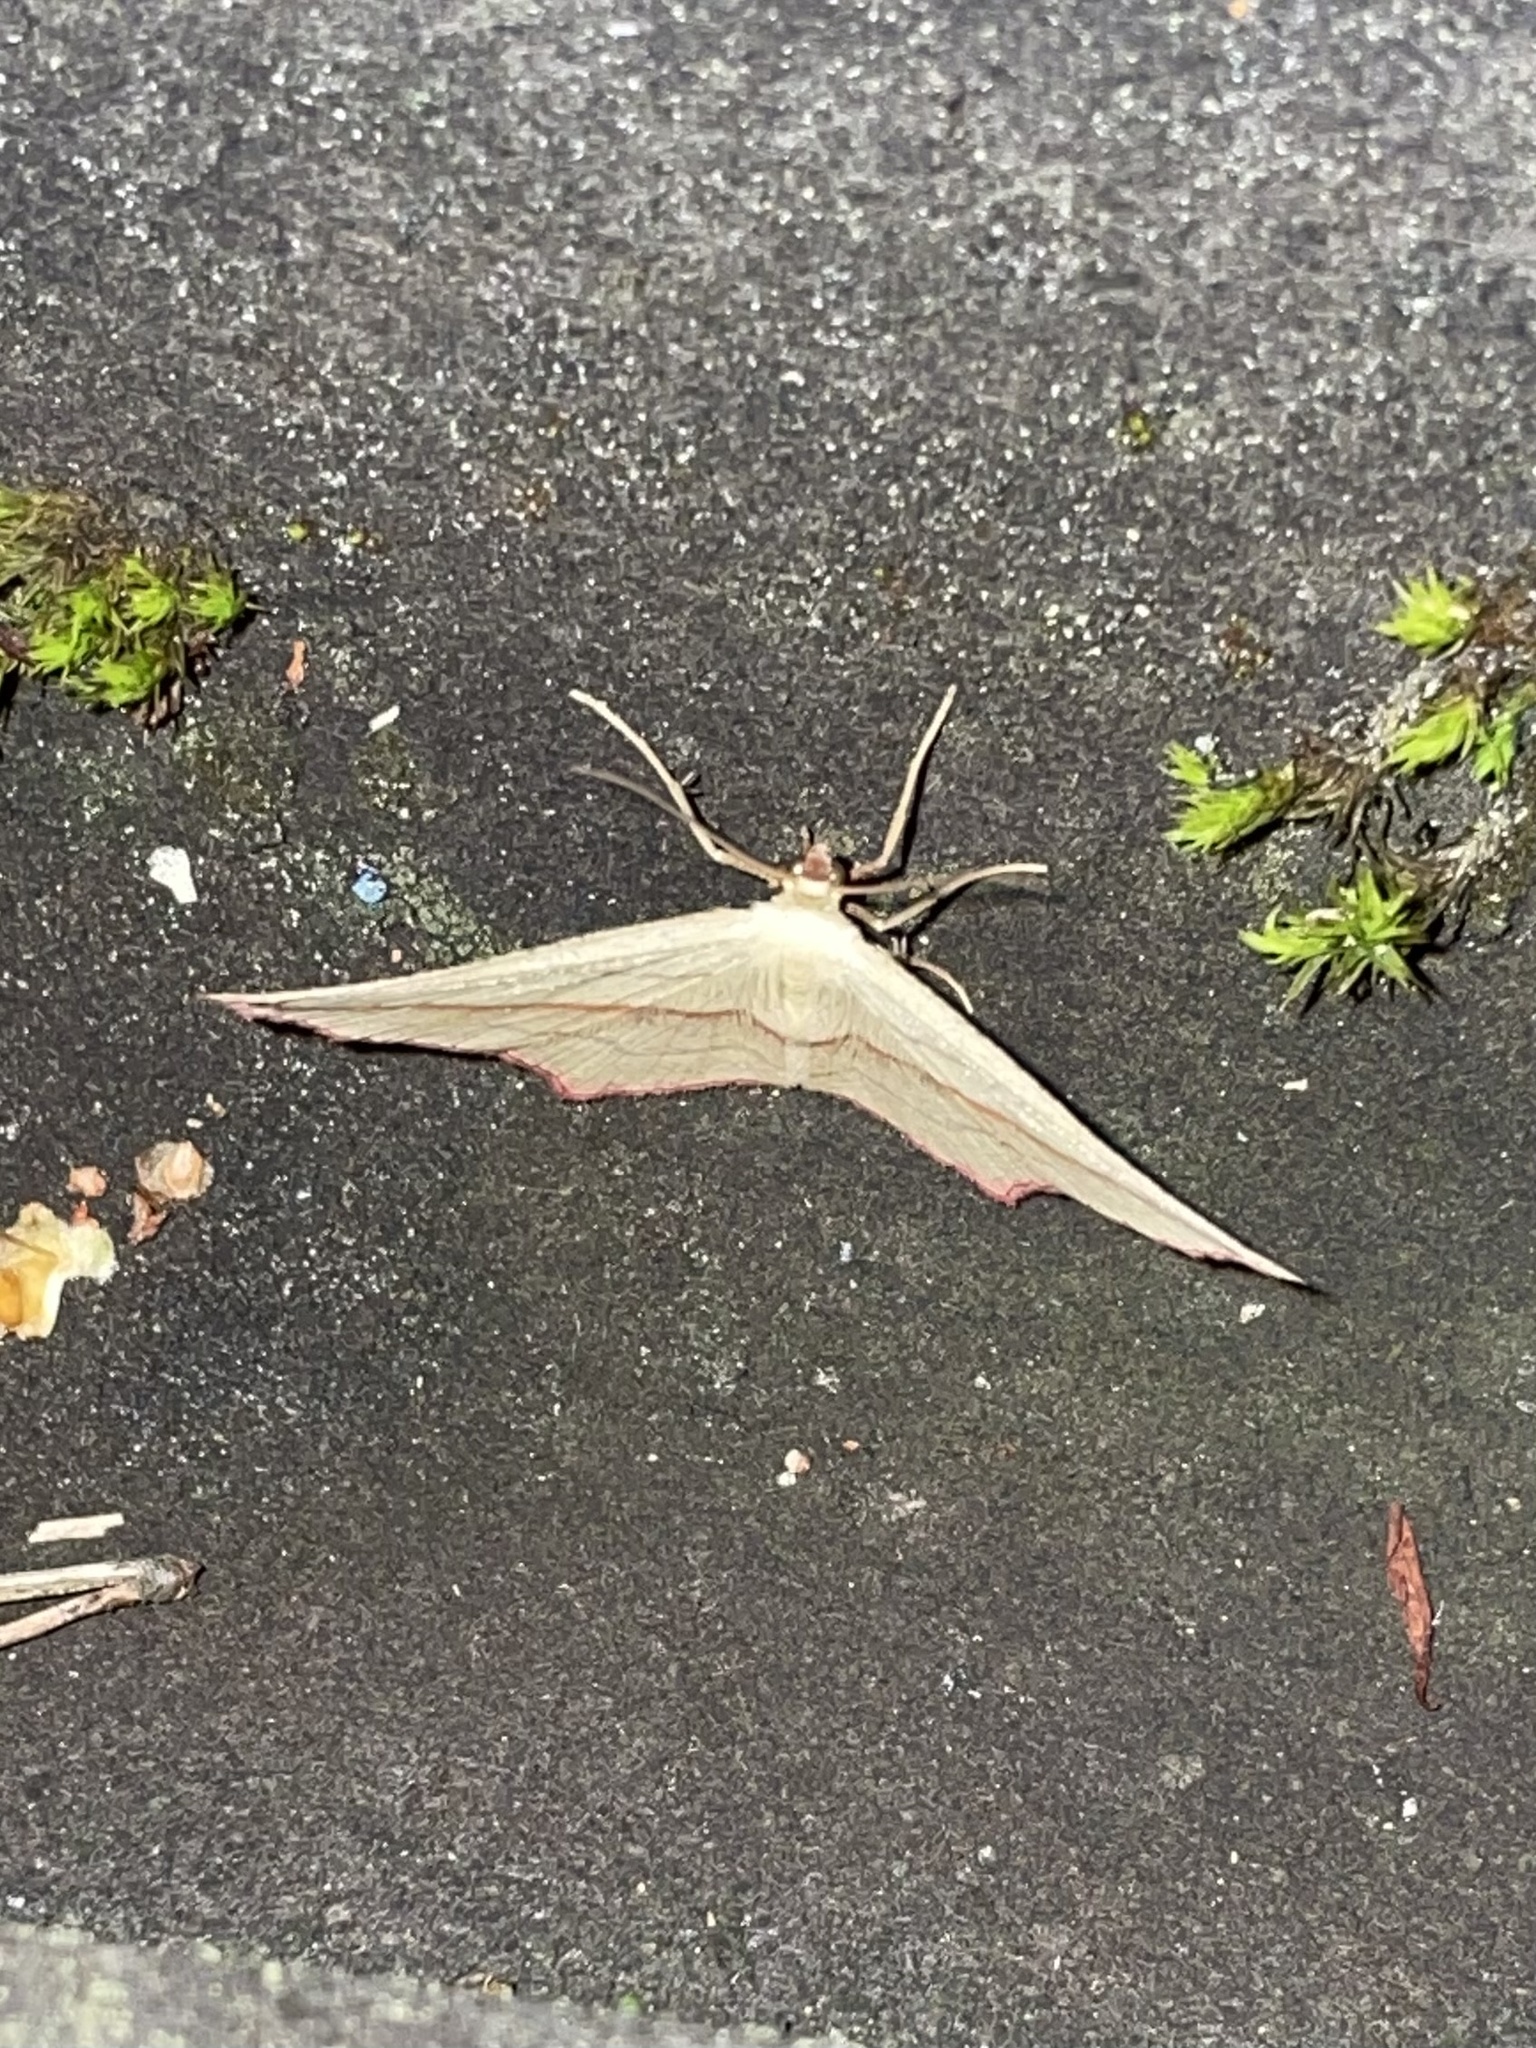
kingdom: Animalia
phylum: Arthropoda
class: Insecta
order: Lepidoptera
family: Geometridae
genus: Timandra
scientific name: Timandra comae
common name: Blood-vein
